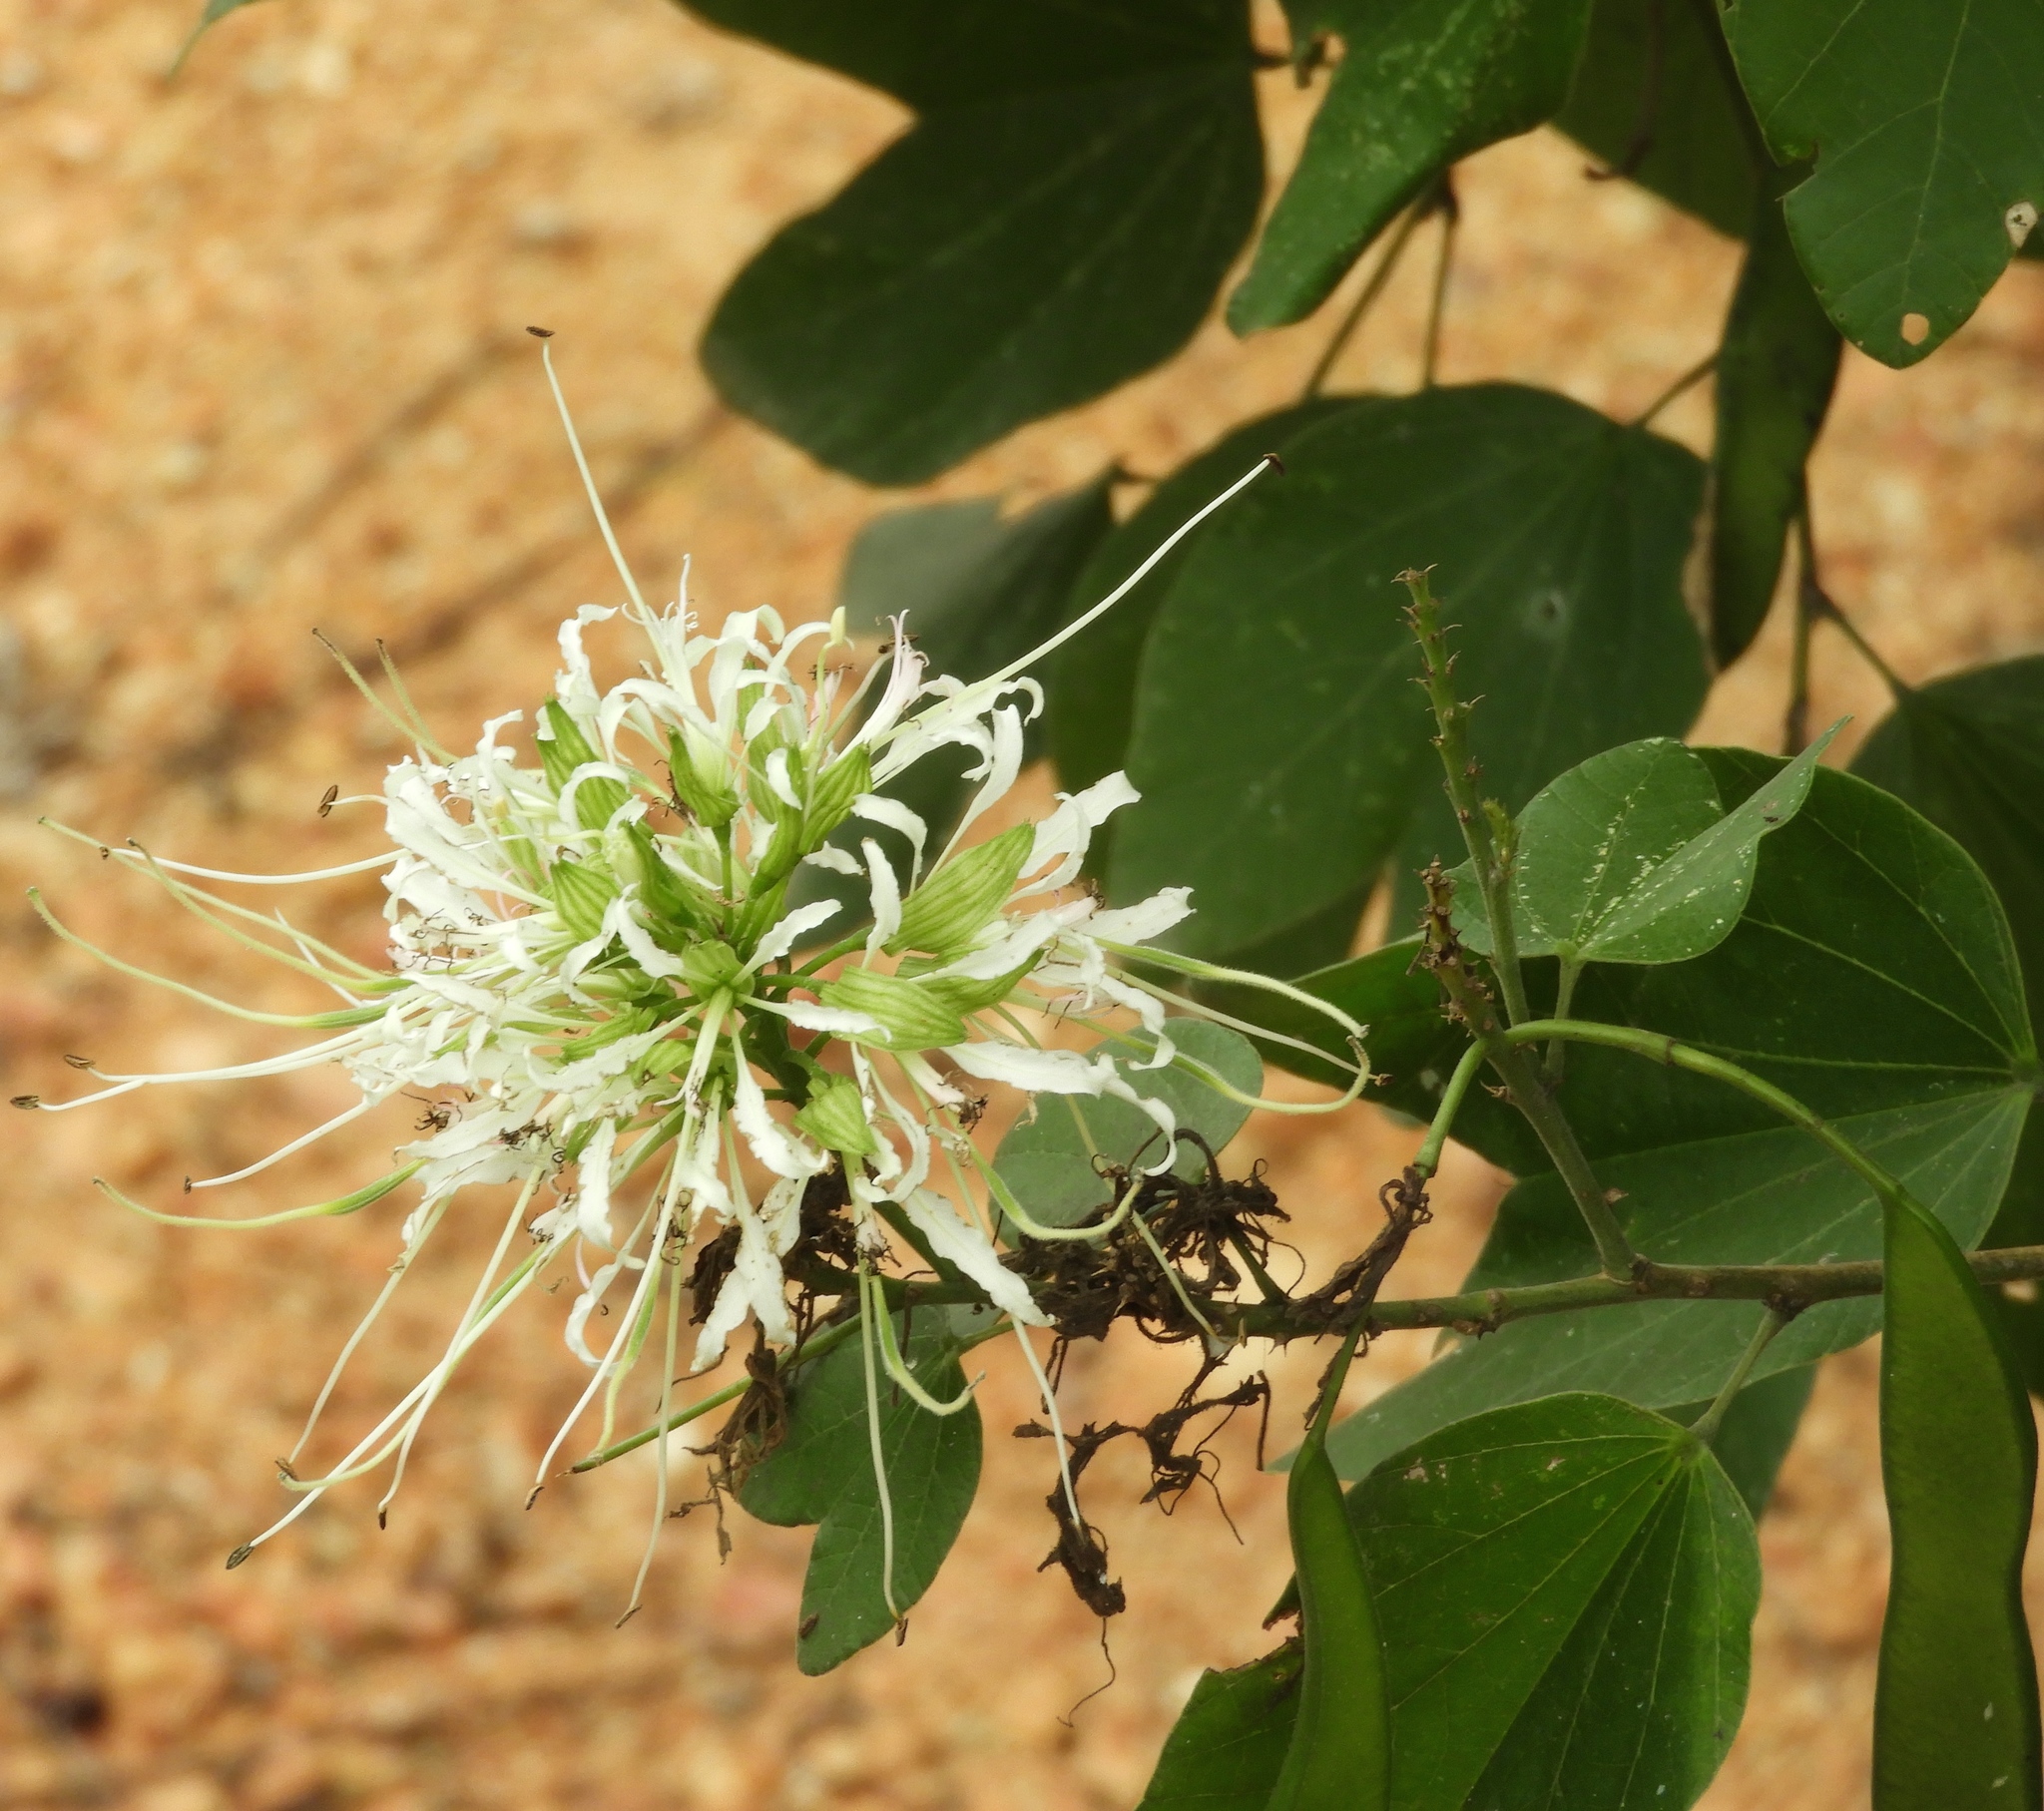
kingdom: Plantae
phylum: Tracheophyta
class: Magnoliopsida
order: Fabales
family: Fabaceae
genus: Bauhinia
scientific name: Bauhinia divaricata
